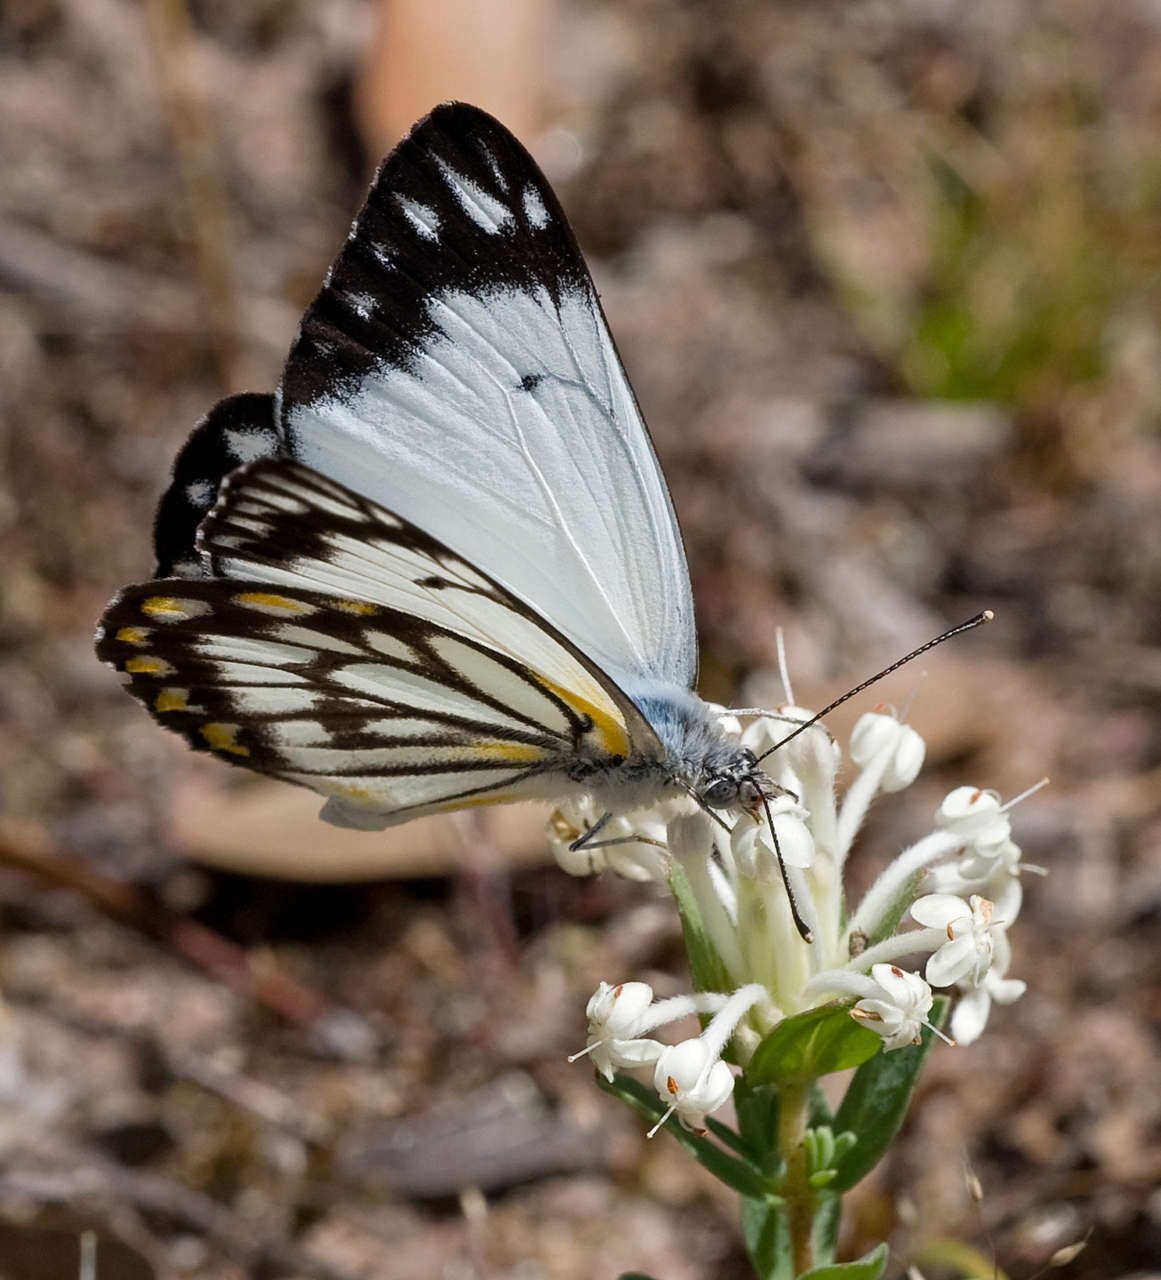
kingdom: Animalia
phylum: Arthropoda
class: Insecta
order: Lepidoptera
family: Pieridae
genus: Belenois
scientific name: Belenois java
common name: Caper white
